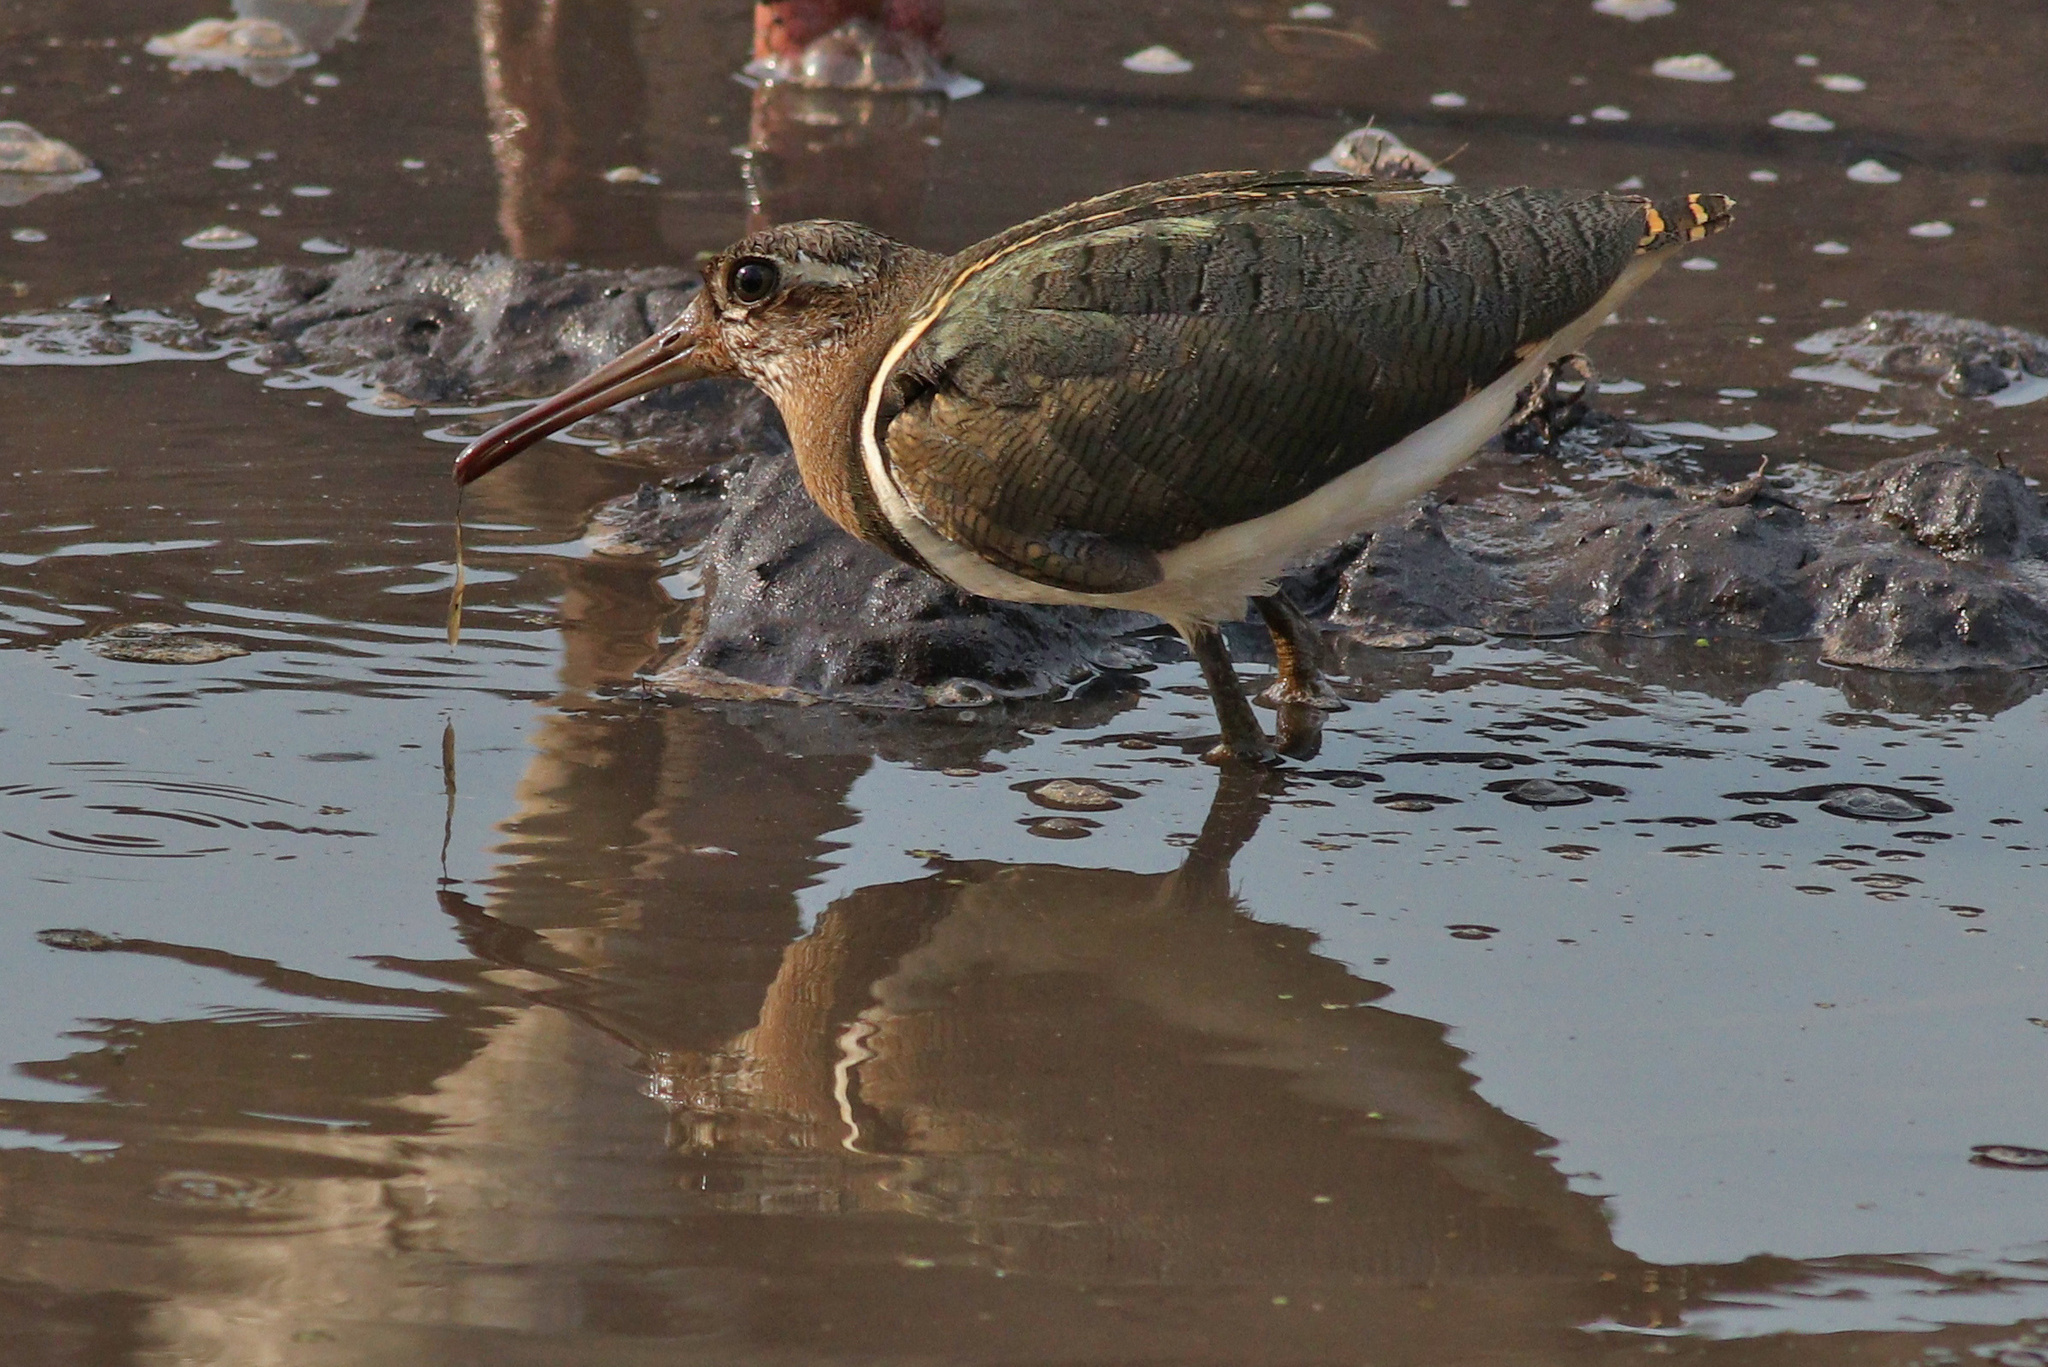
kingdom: Animalia
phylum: Chordata
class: Aves
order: Charadriiformes
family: Rostratulidae
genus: Rostratula
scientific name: Rostratula benghalensis
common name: Greater painted-snipe
